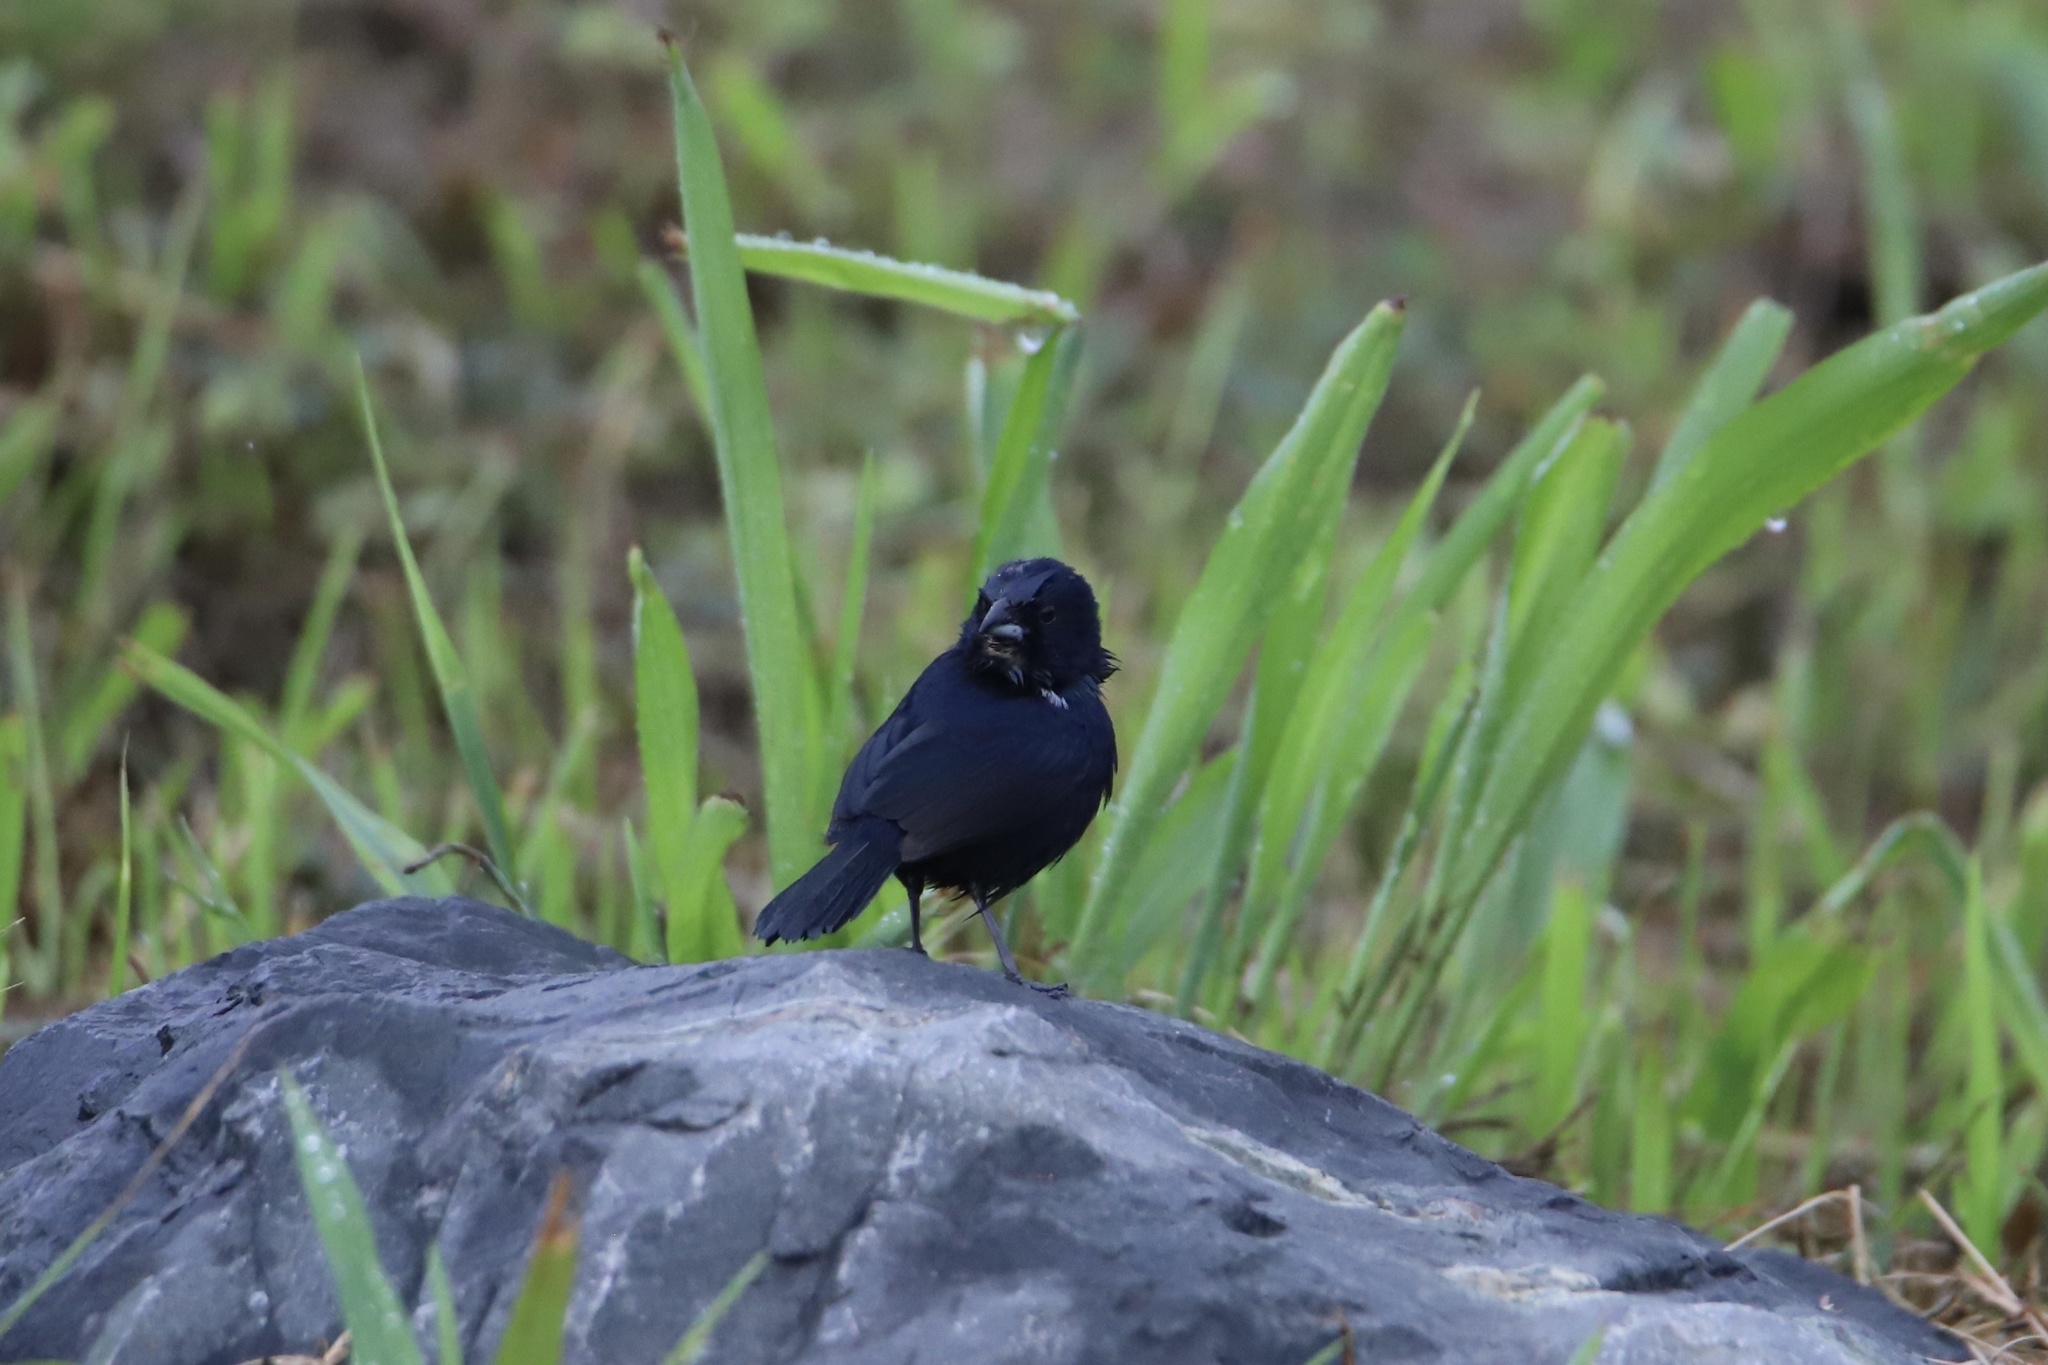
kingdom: Animalia
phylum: Chordata
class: Aves
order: Passeriformes
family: Thraupidae
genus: Volatinia
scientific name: Volatinia jacarina
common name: Blue-black grassquit
